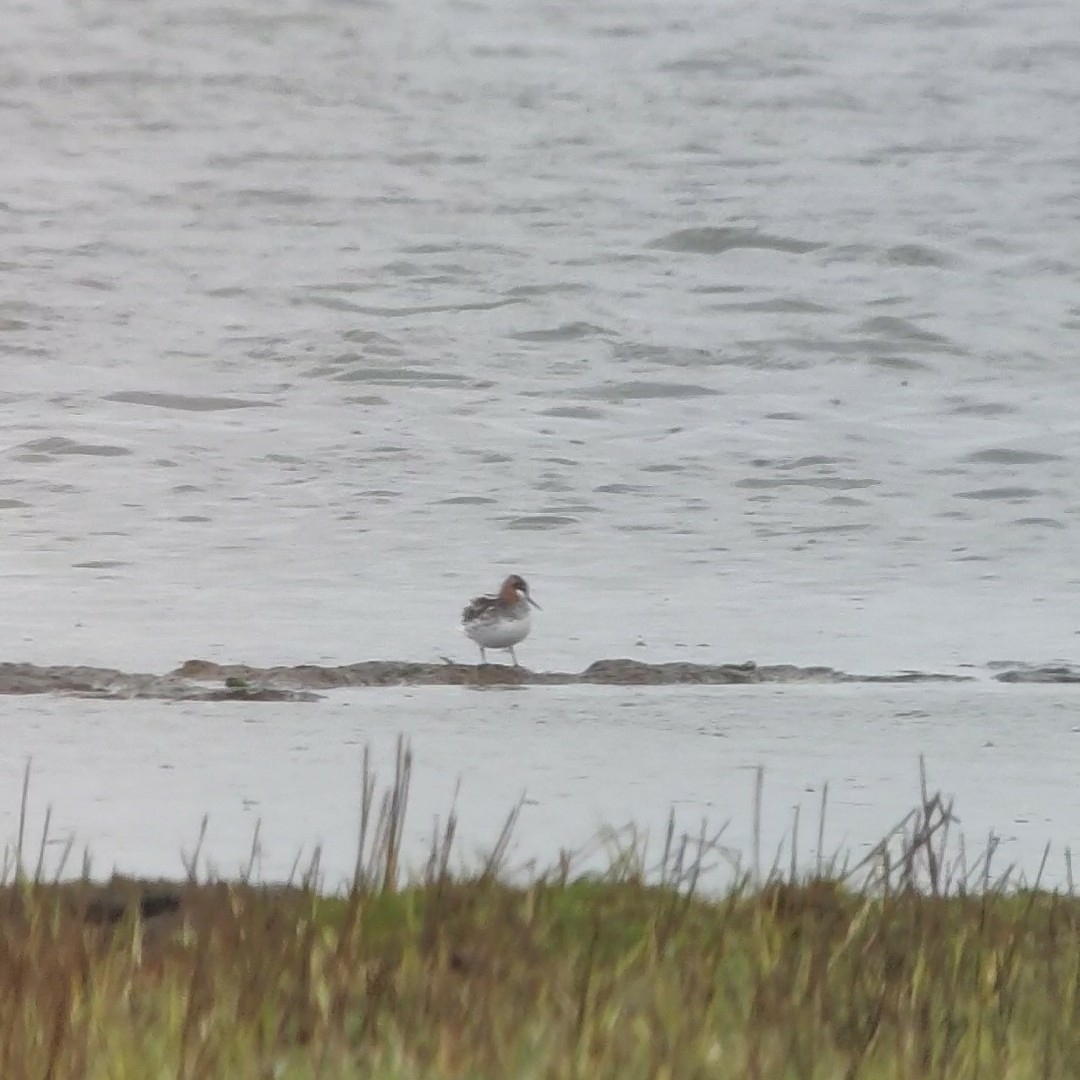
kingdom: Animalia
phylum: Chordata
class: Aves
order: Charadriiformes
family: Scolopacidae
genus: Phalaropus
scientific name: Phalaropus lobatus
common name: Red-necked phalarope
